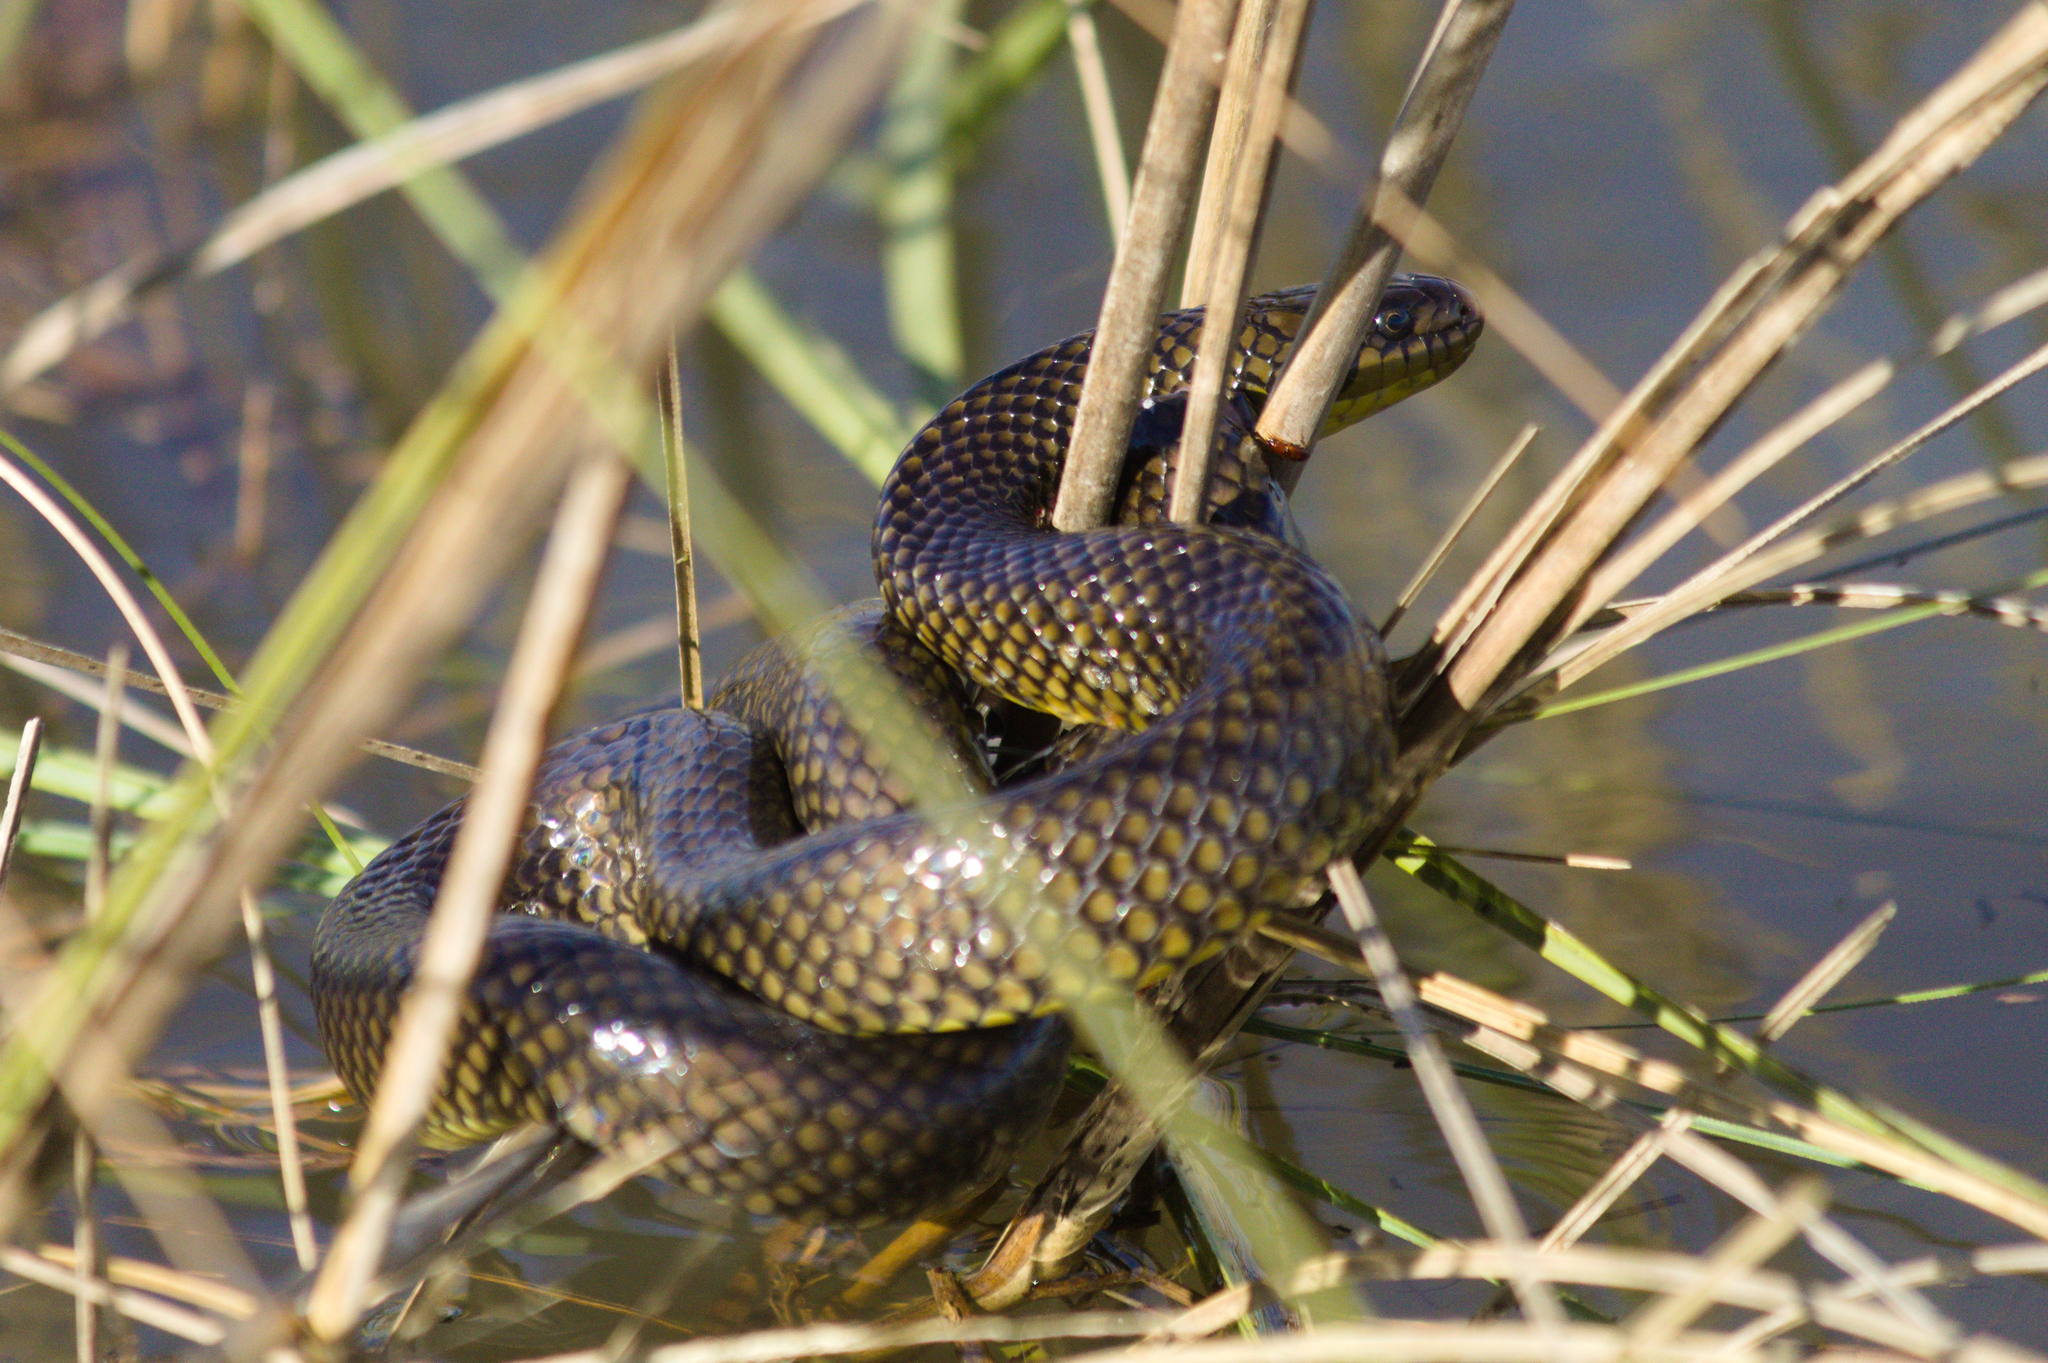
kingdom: Animalia
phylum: Chordata
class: Squamata
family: Colubridae
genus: Erythrolamprus
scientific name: Erythrolamprus miliaris
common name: Military ground snake
